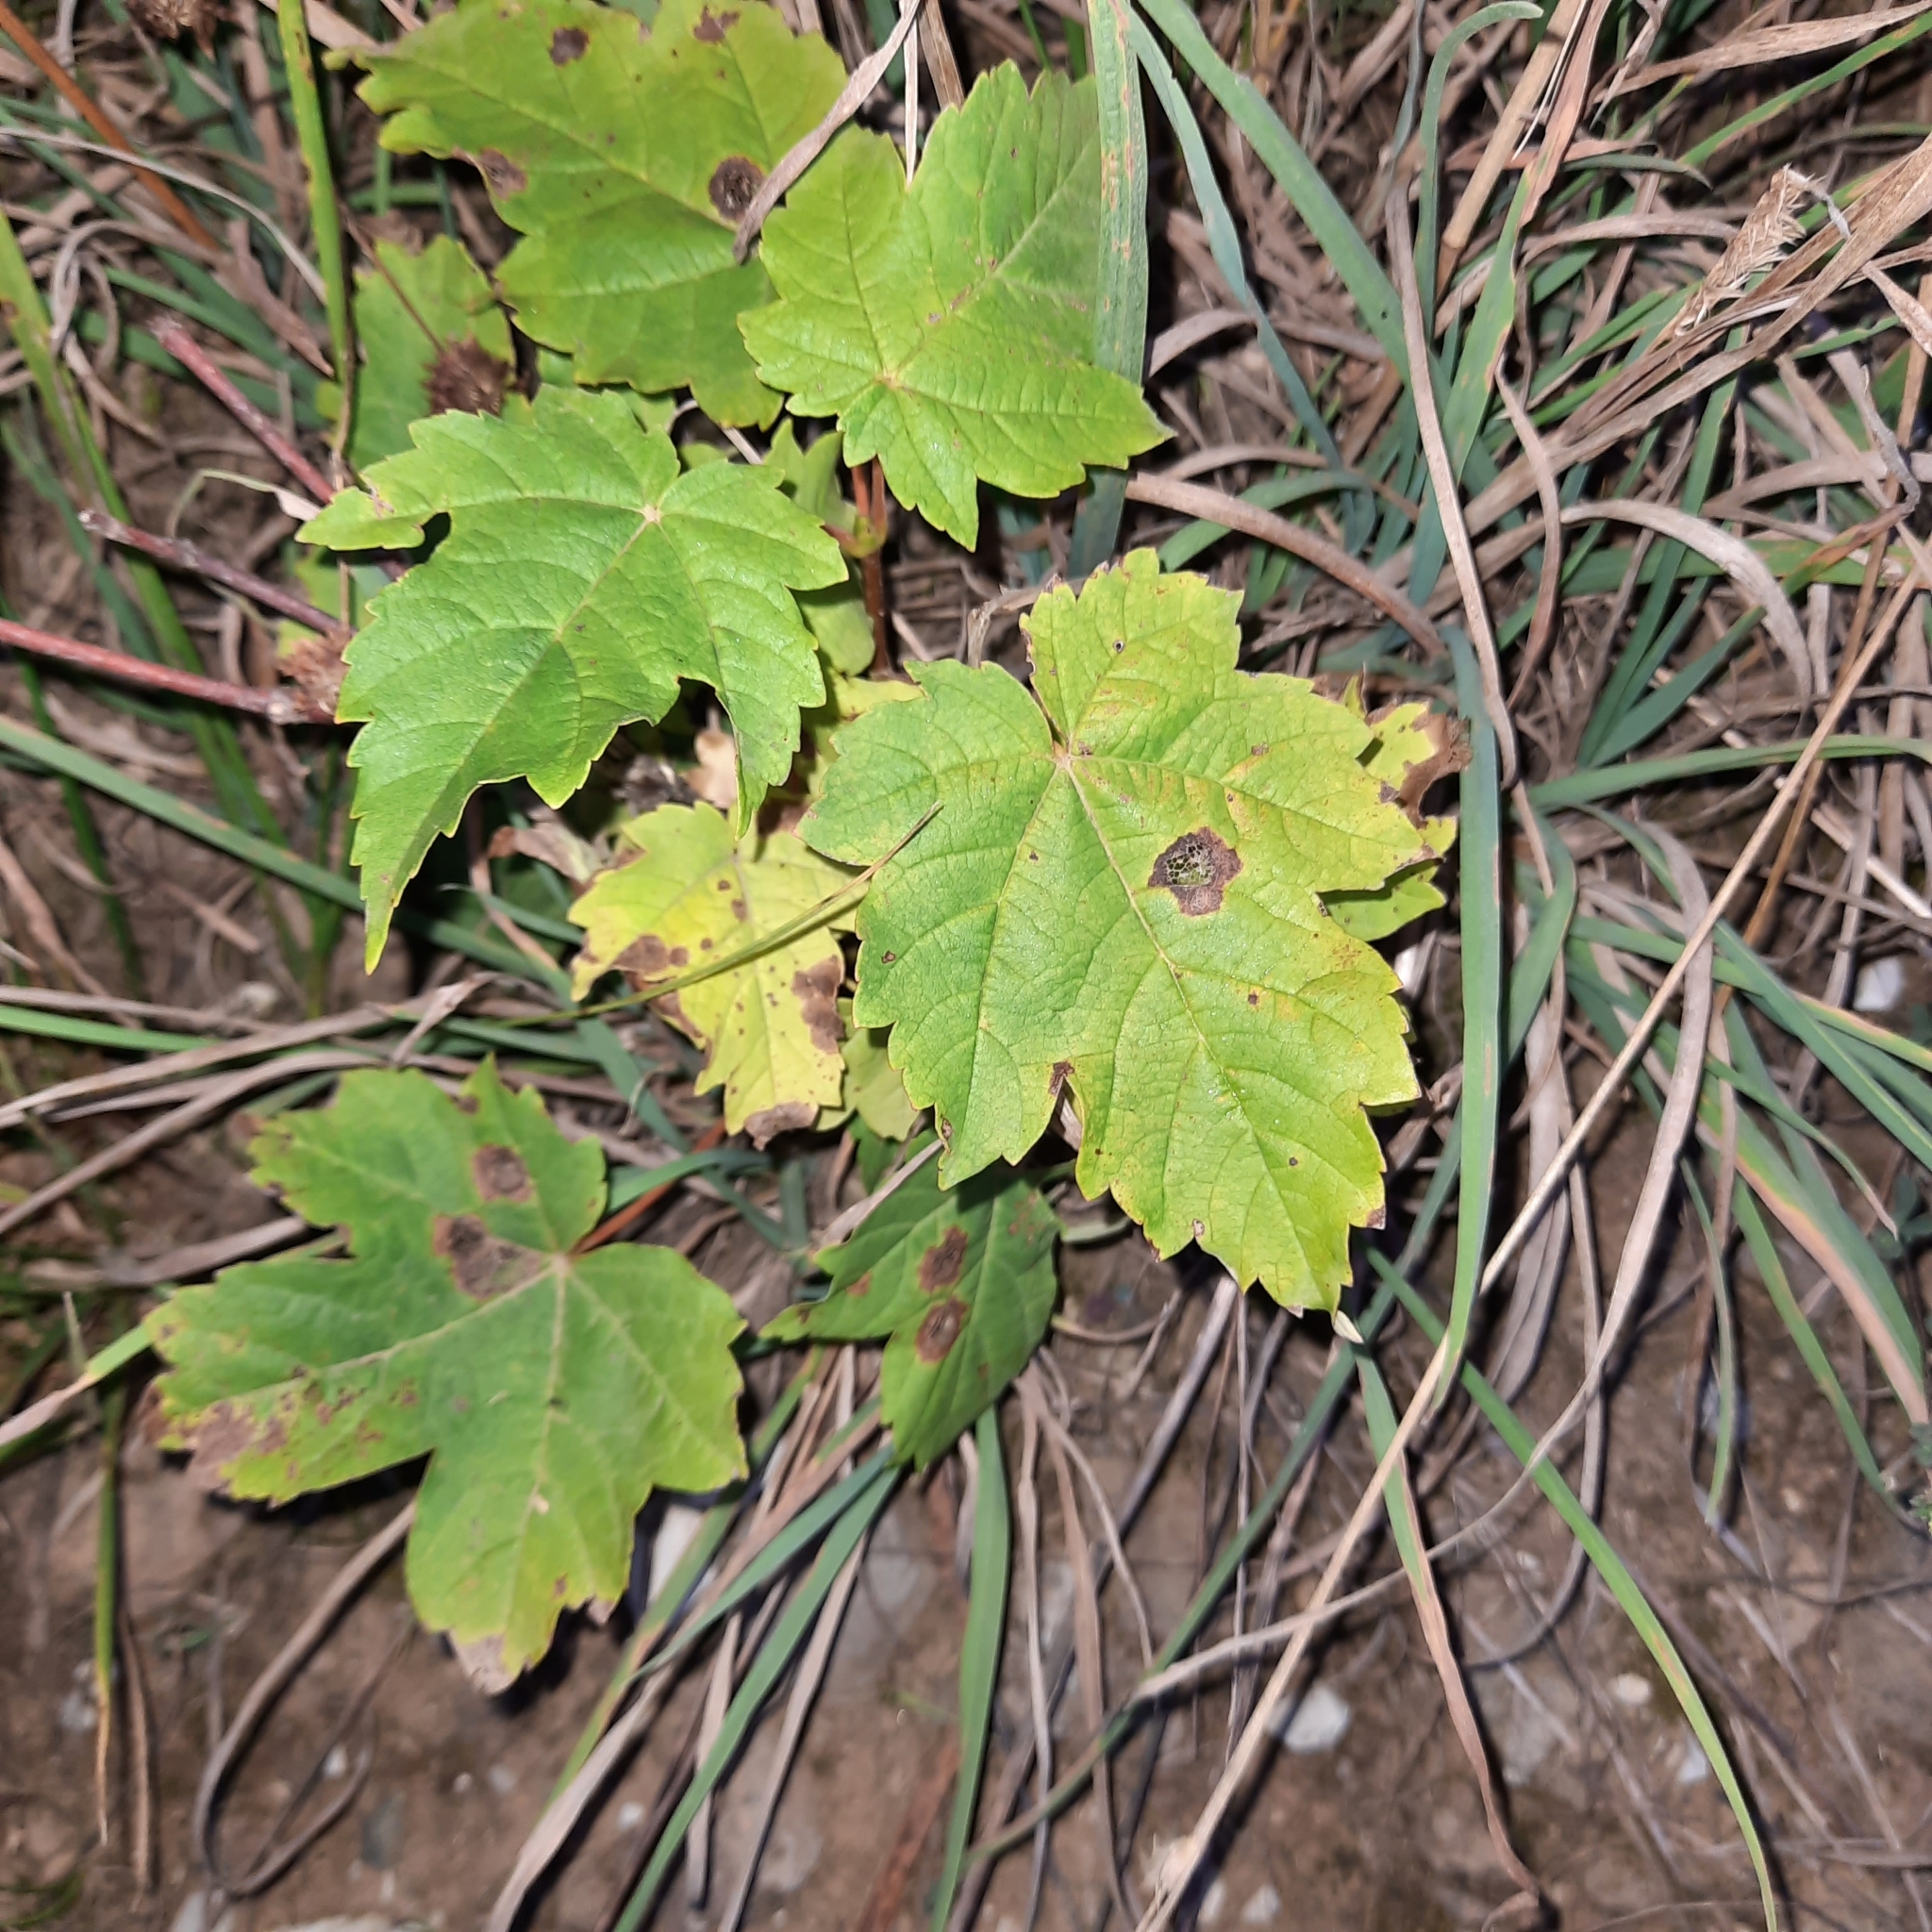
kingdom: Plantae
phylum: Tracheophyta
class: Magnoliopsida
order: Sapindales
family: Sapindaceae
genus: Acer
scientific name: Acer pseudoplatanus
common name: Sycamore
